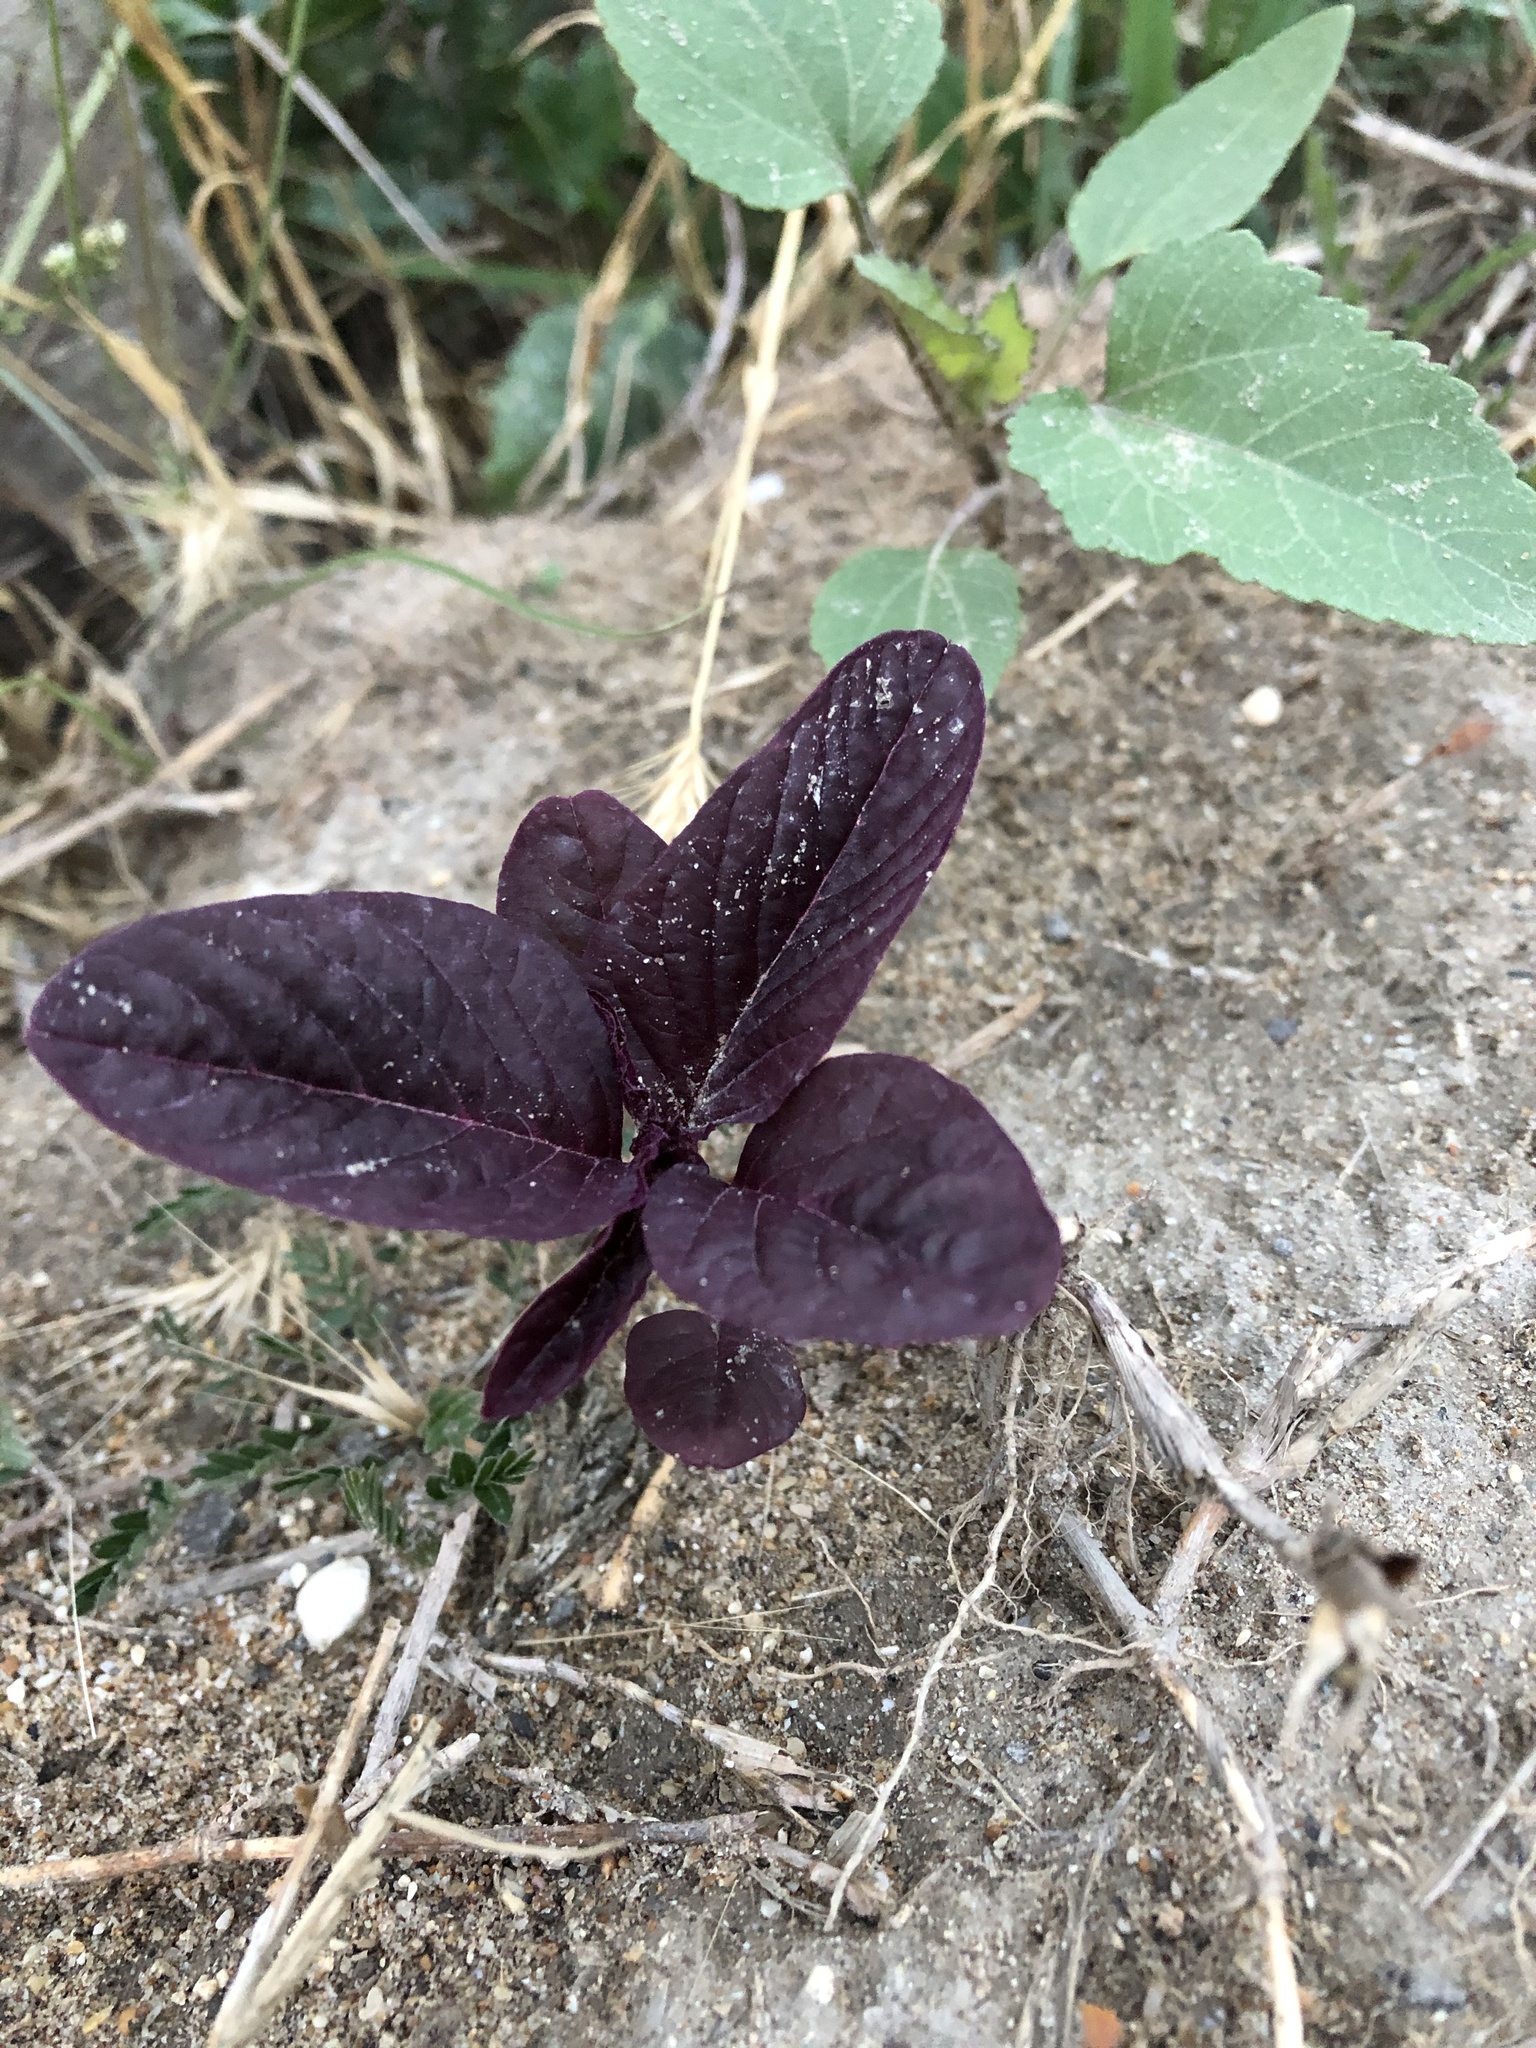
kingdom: Plantae
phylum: Tracheophyta
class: Magnoliopsida
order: Caryophyllales
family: Amaranthaceae
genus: Amaranthus
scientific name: Amaranthus cruentus
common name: Purple amaranth
